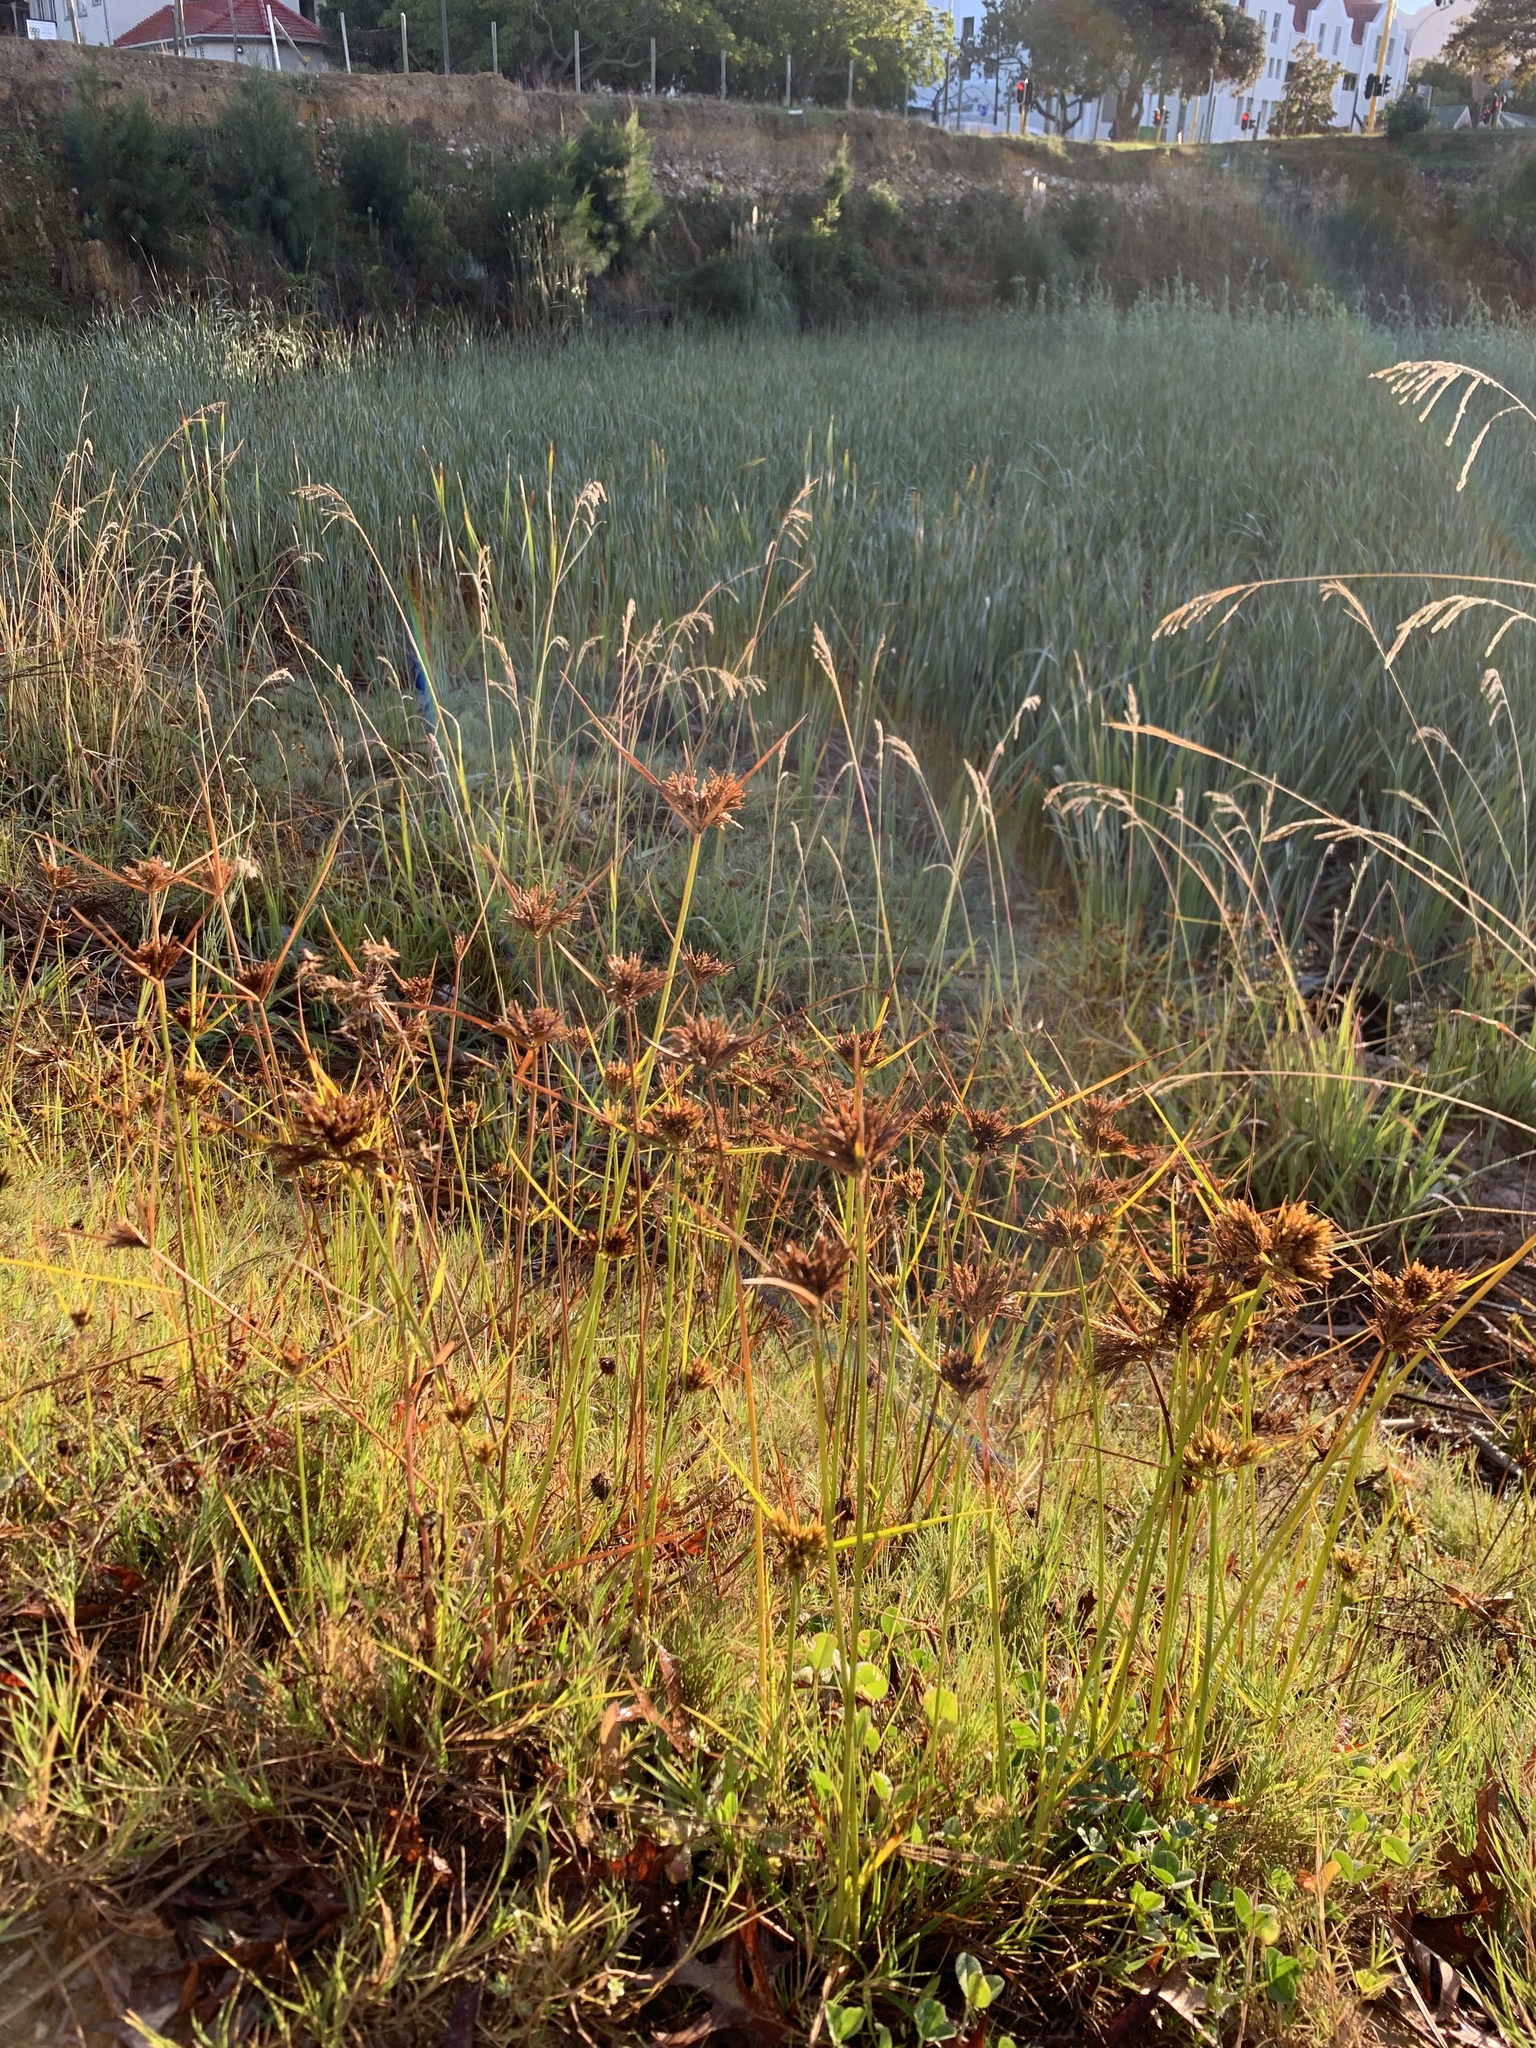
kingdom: Plantae
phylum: Tracheophyta
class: Liliopsida
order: Poales
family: Cyperaceae
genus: Cyperus
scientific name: Cyperus polystachyos
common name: Bunchy flat sedge
